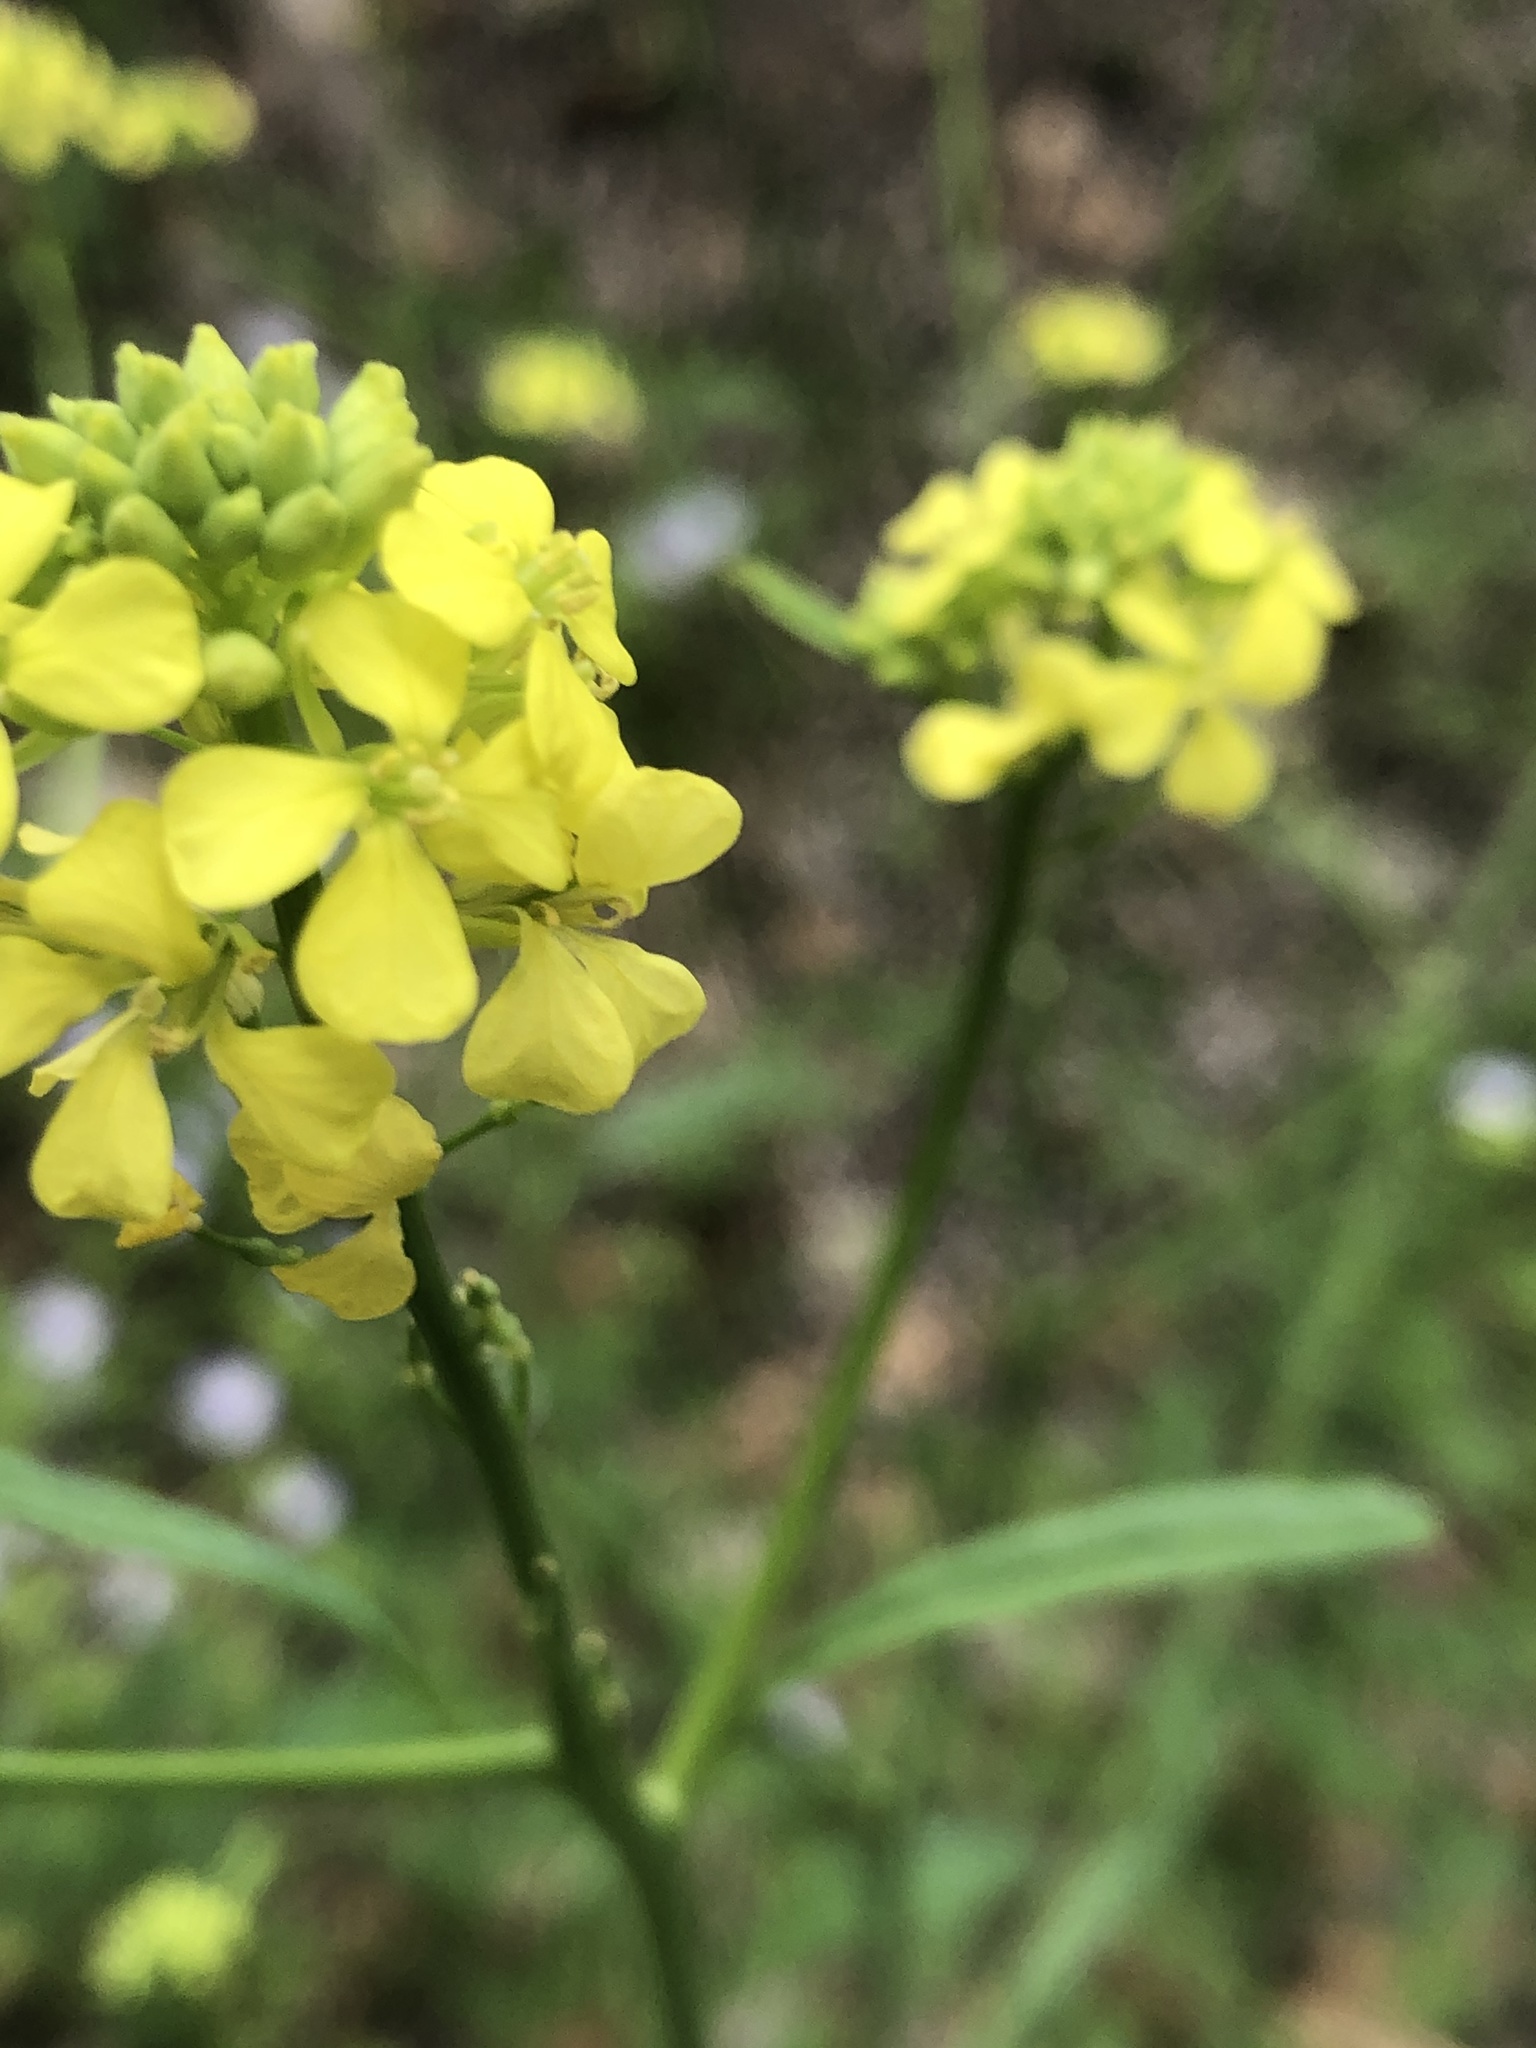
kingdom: Plantae
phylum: Tracheophyta
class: Magnoliopsida
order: Brassicales
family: Brassicaceae
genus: Rapistrum
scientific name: Rapistrum rugosum
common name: Annual bastardcabbage
